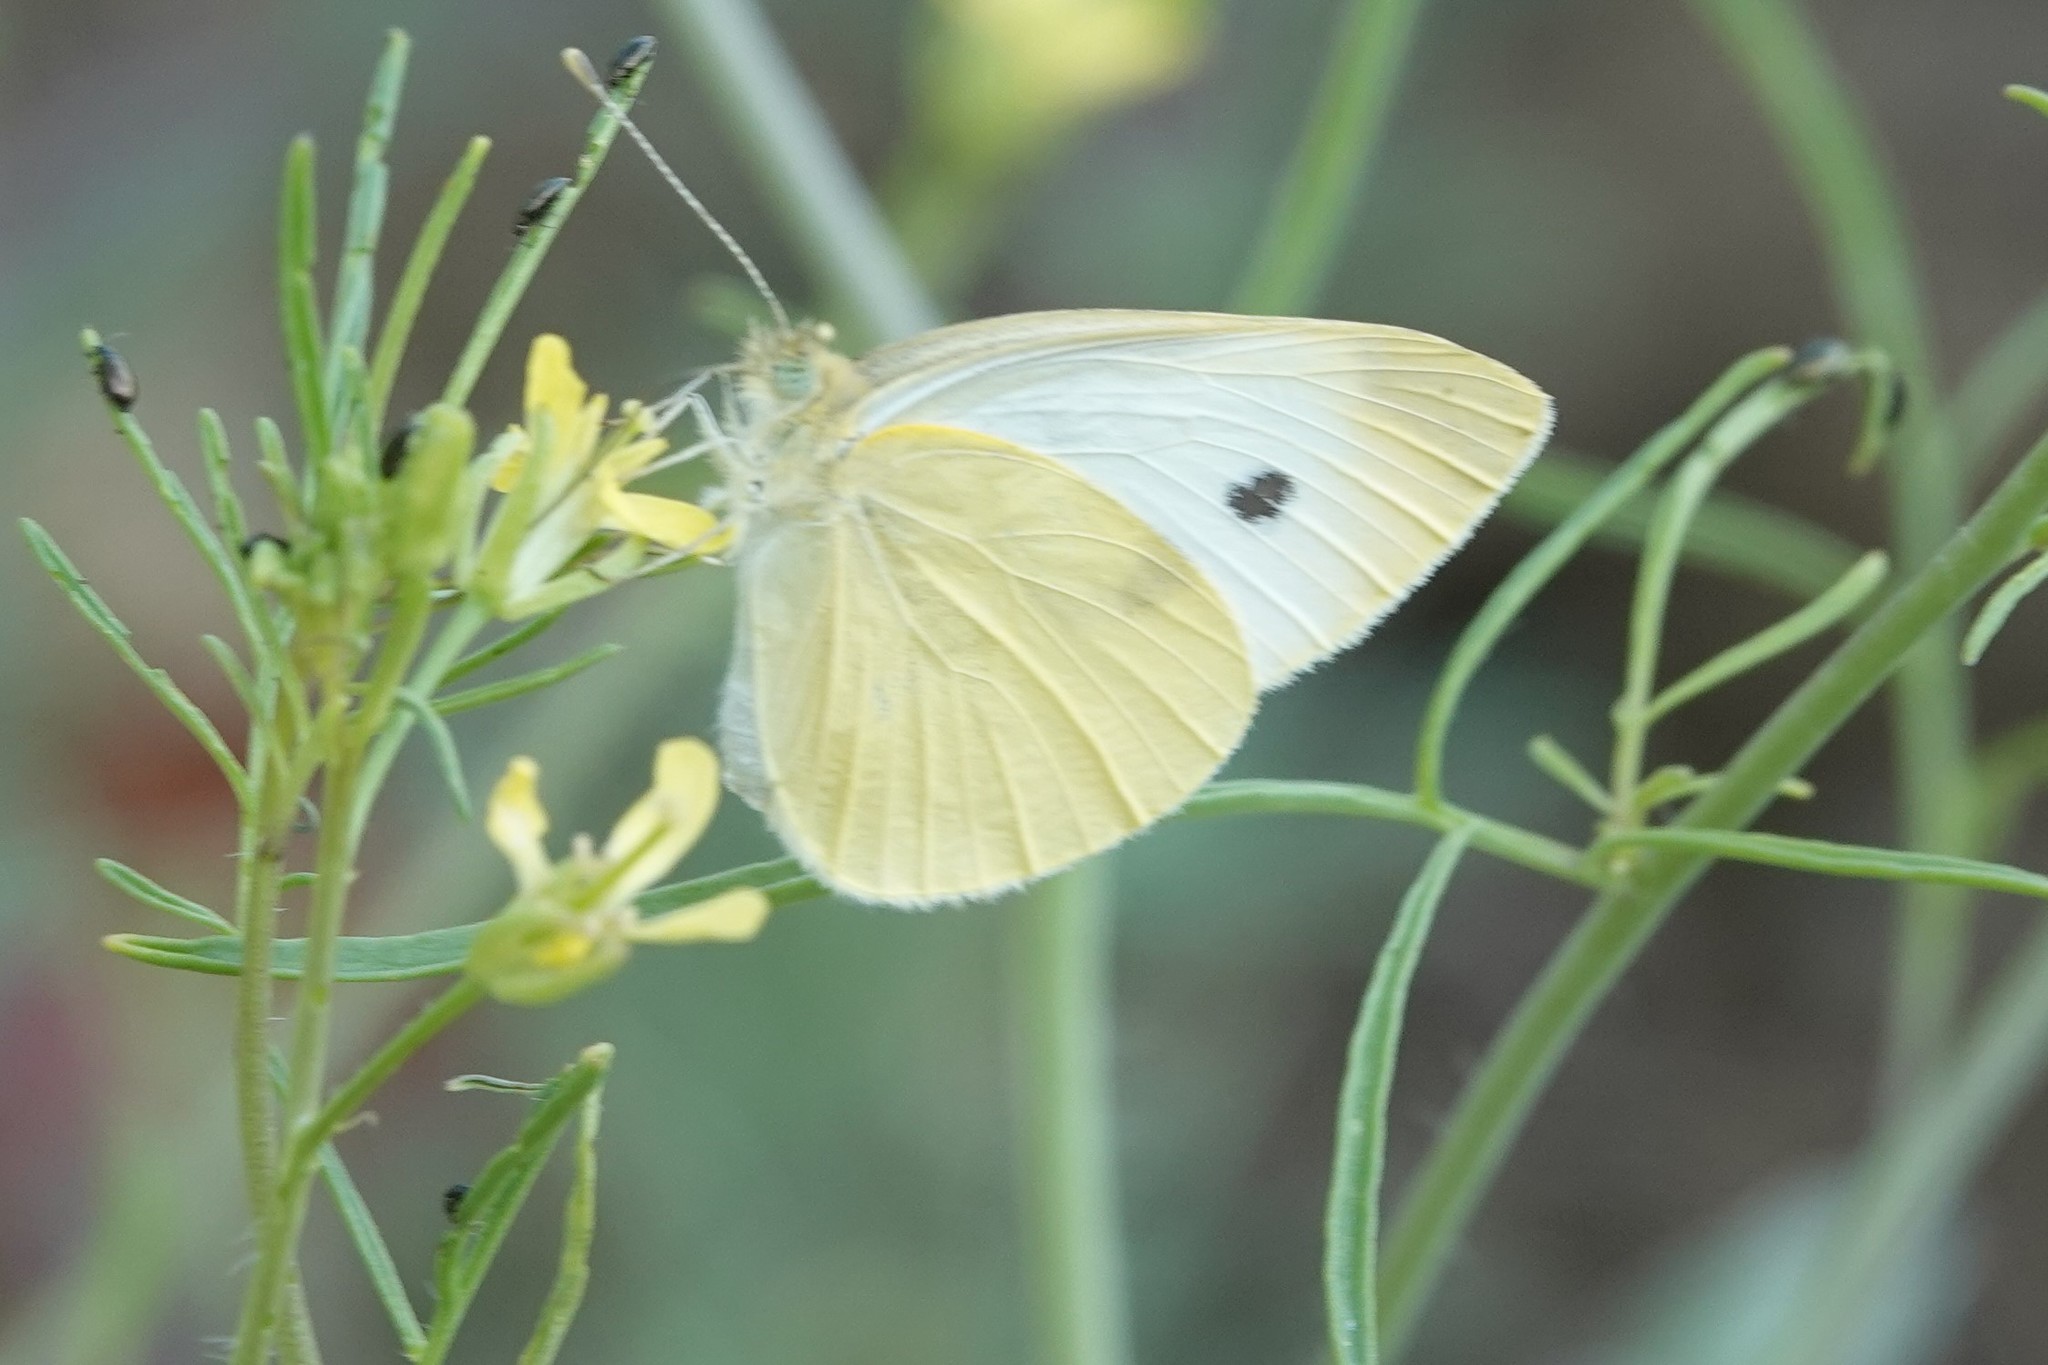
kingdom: Animalia
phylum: Arthropoda
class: Insecta
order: Lepidoptera
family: Pieridae
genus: Pieris
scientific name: Pieris rapae
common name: Small white
